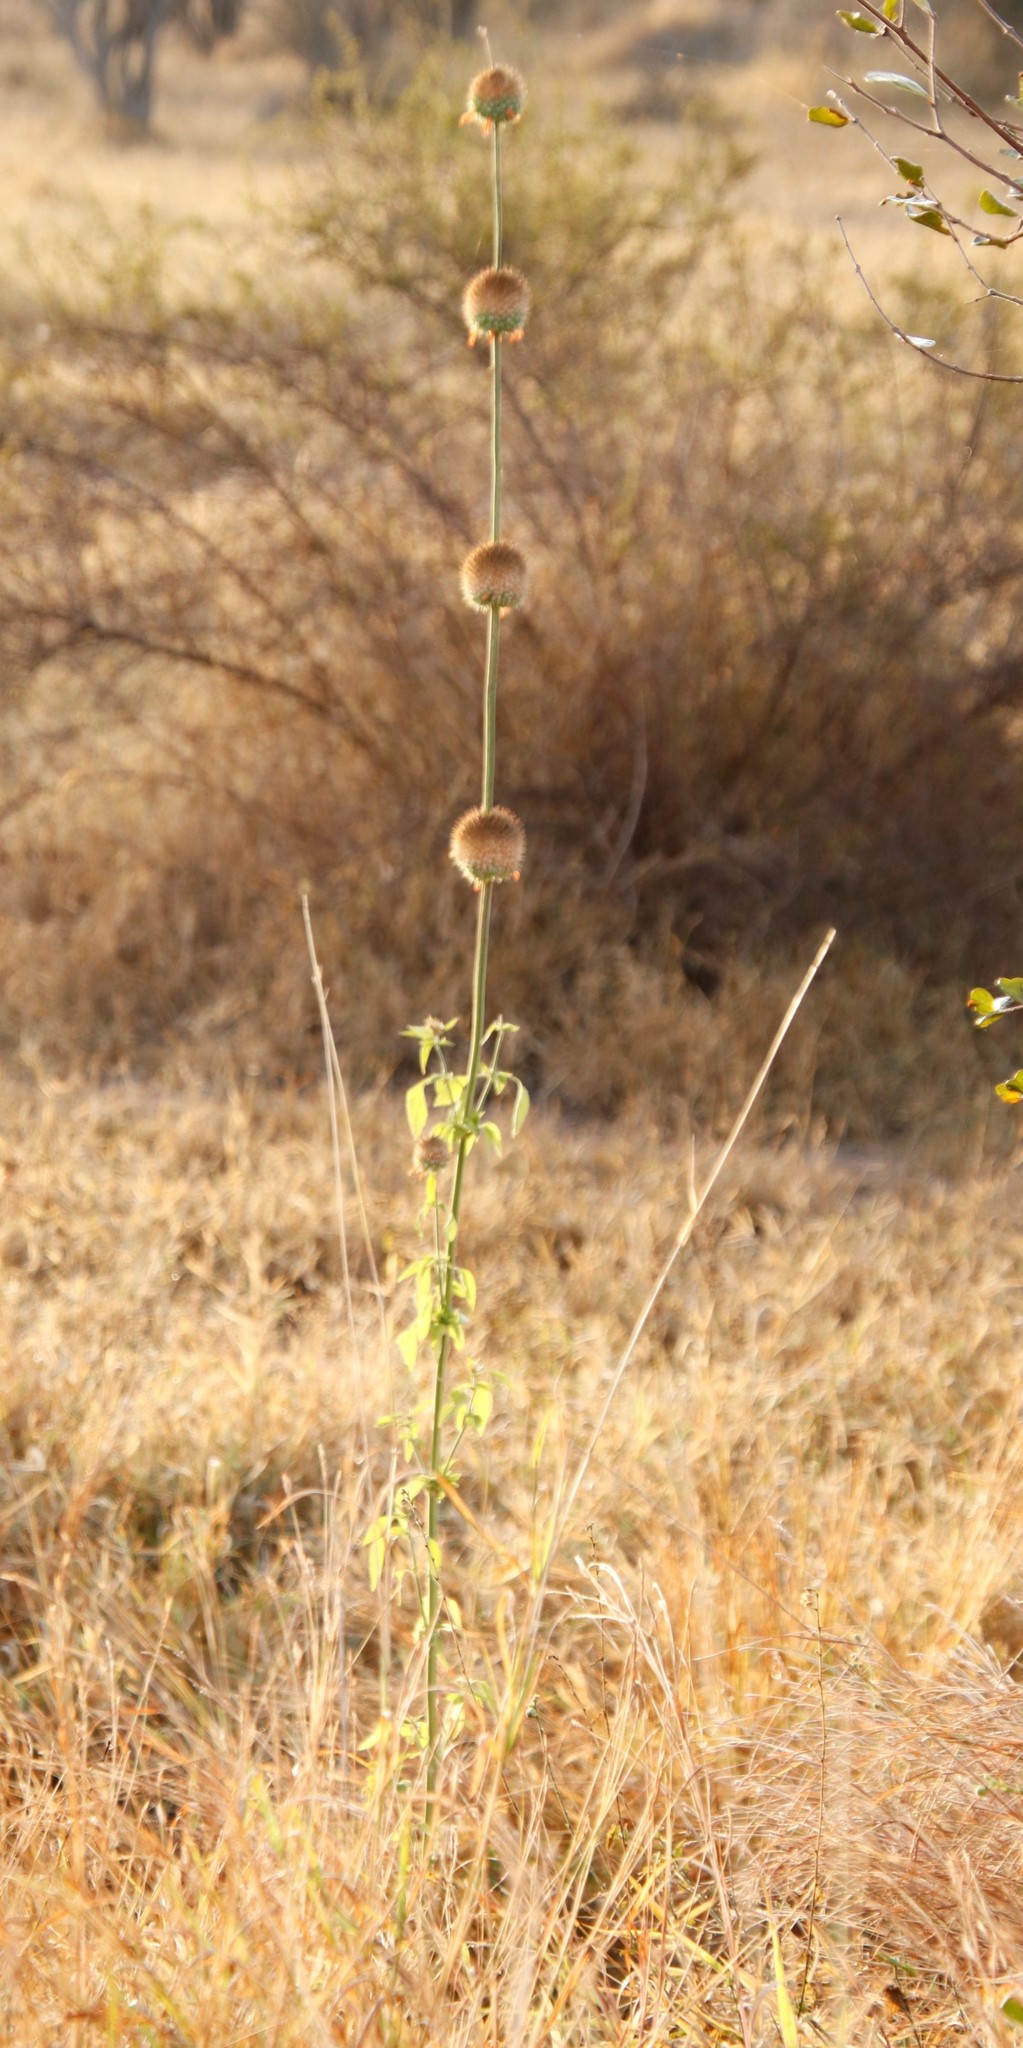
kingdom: Plantae
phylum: Tracheophyta
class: Magnoliopsida
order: Lamiales
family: Lamiaceae
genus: Leonotis
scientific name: Leonotis nepetifolia
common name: Christmas candlestick
